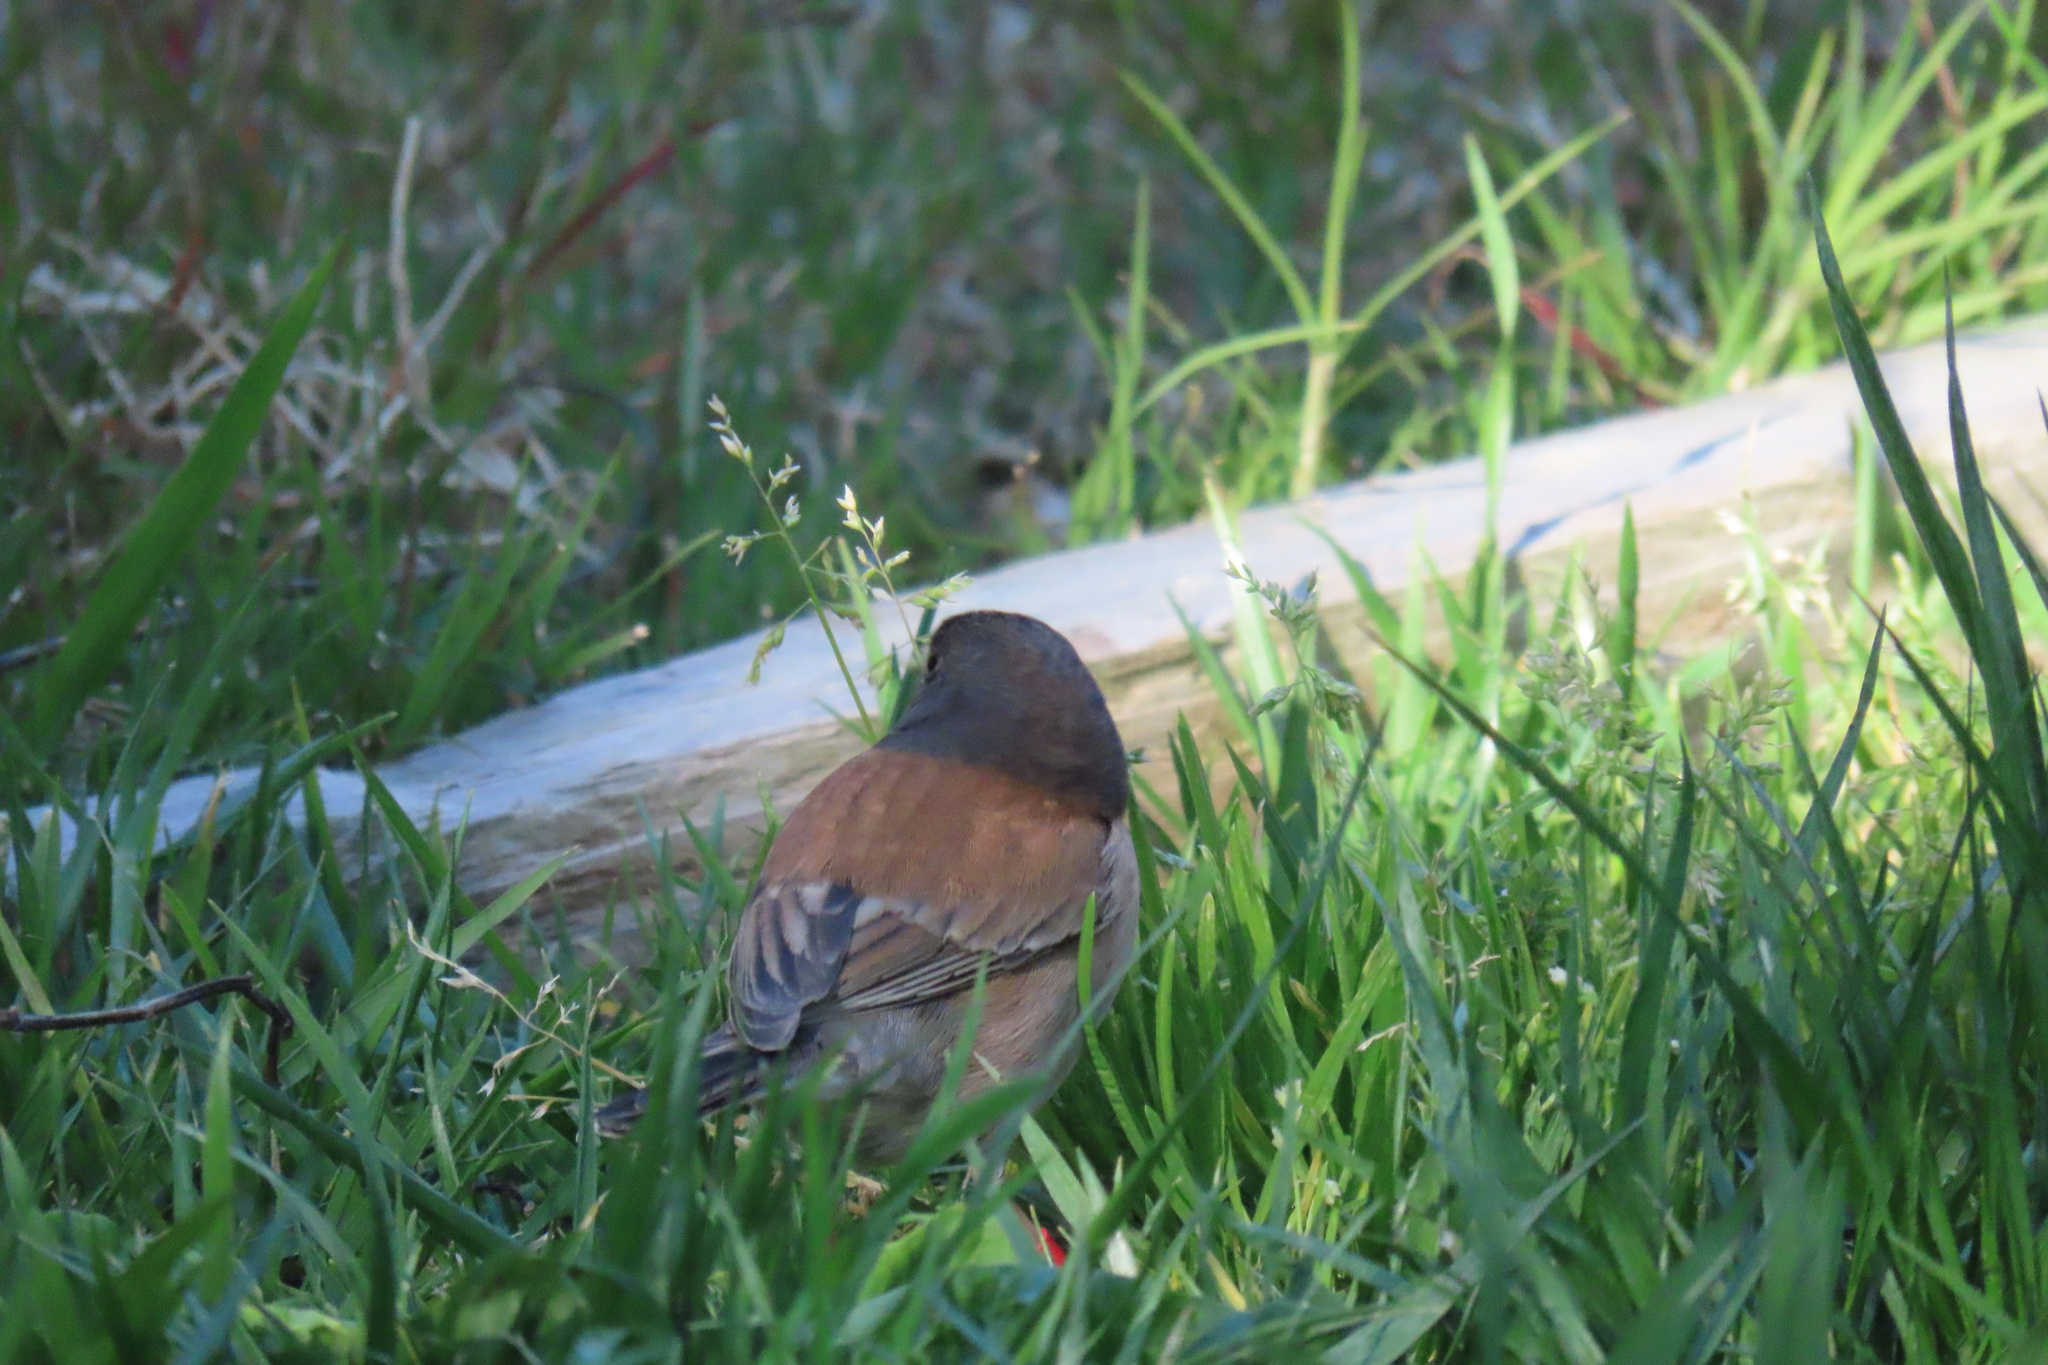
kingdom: Animalia
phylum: Chordata
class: Aves
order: Passeriformes
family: Passerellidae
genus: Junco
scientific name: Junco hyemalis
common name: Dark-eyed junco
